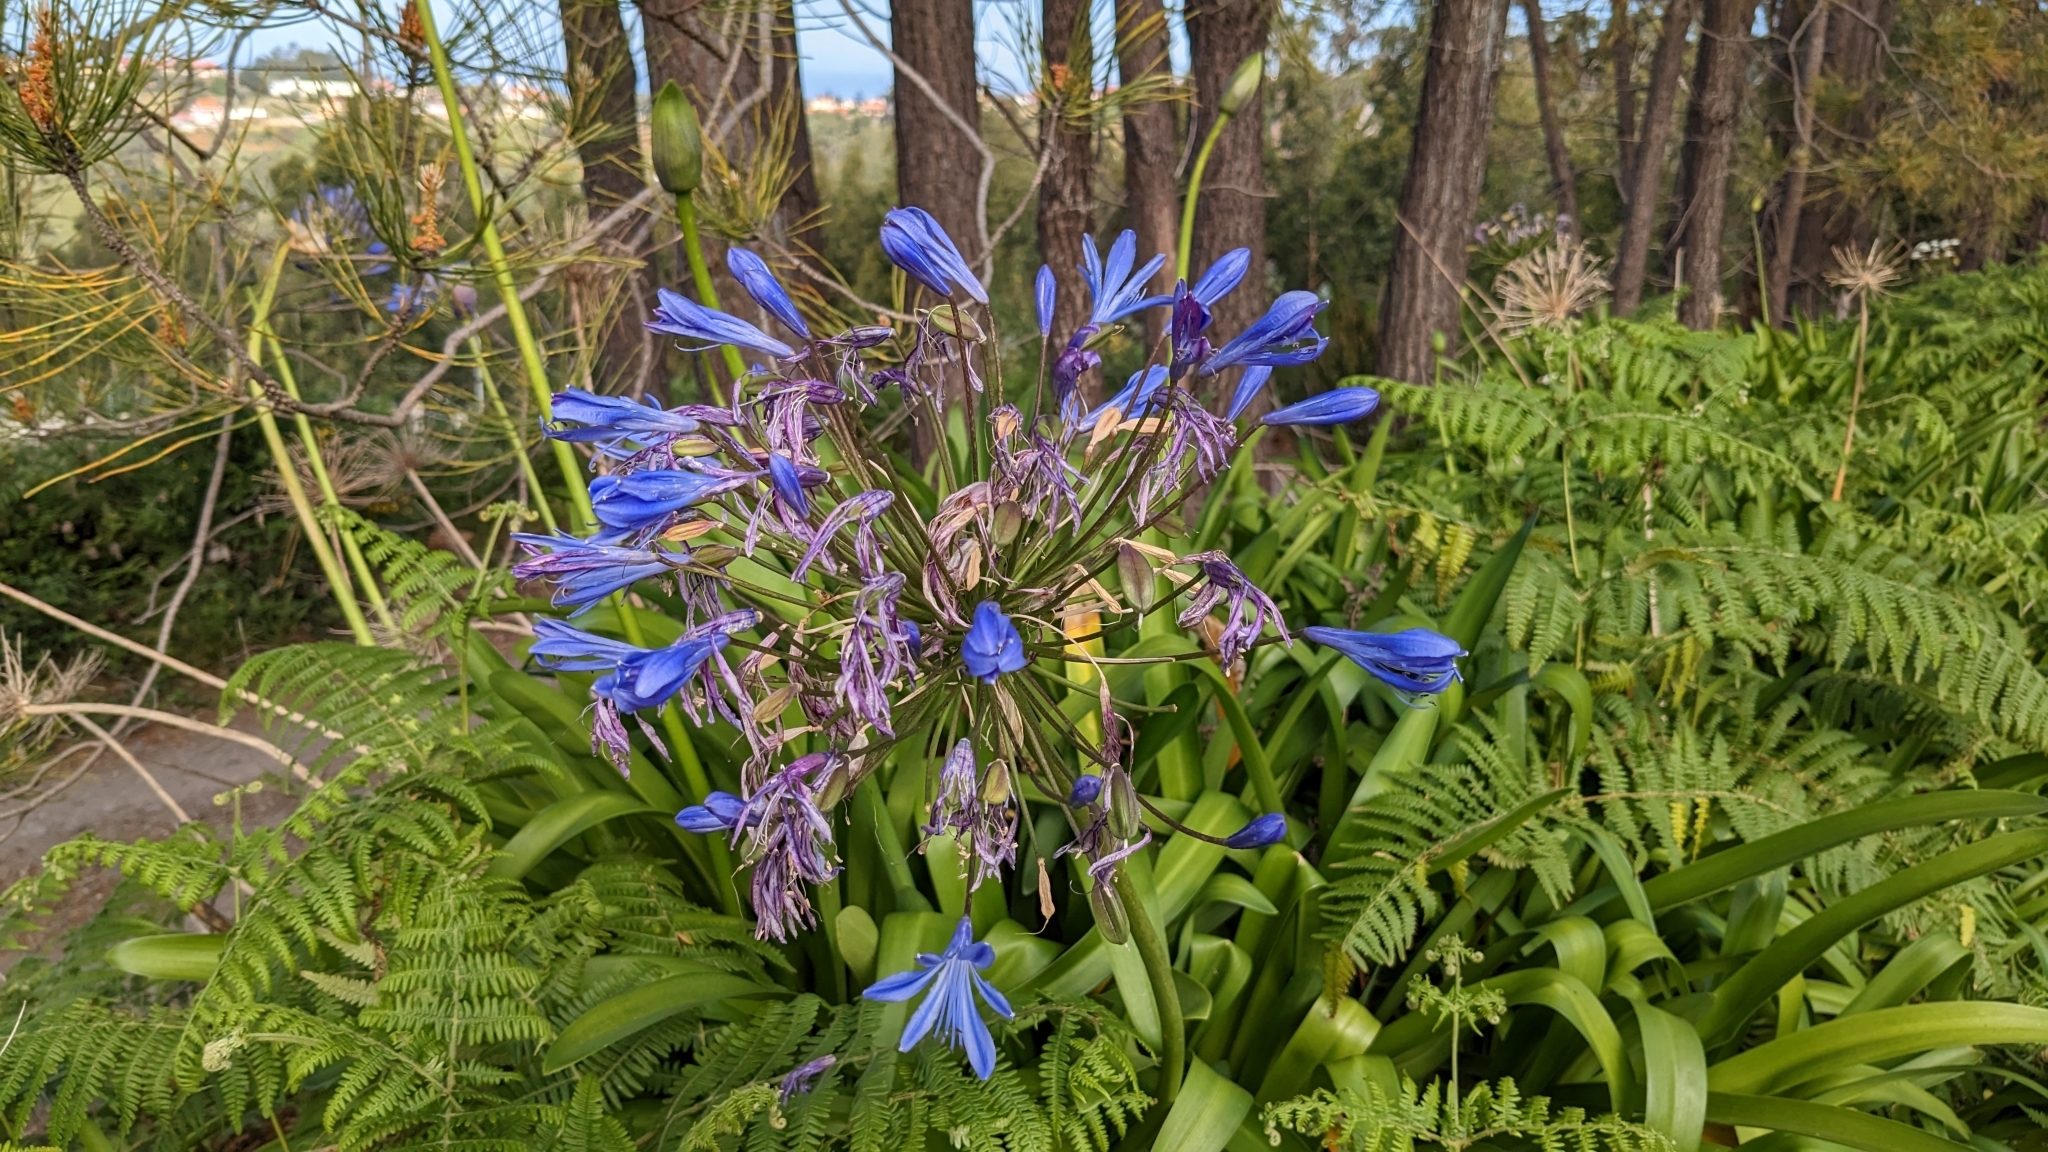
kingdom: Plantae
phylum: Tracheophyta
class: Liliopsida
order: Asparagales
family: Amaryllidaceae
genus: Agapanthus
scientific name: Agapanthus praecox
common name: African-lily
